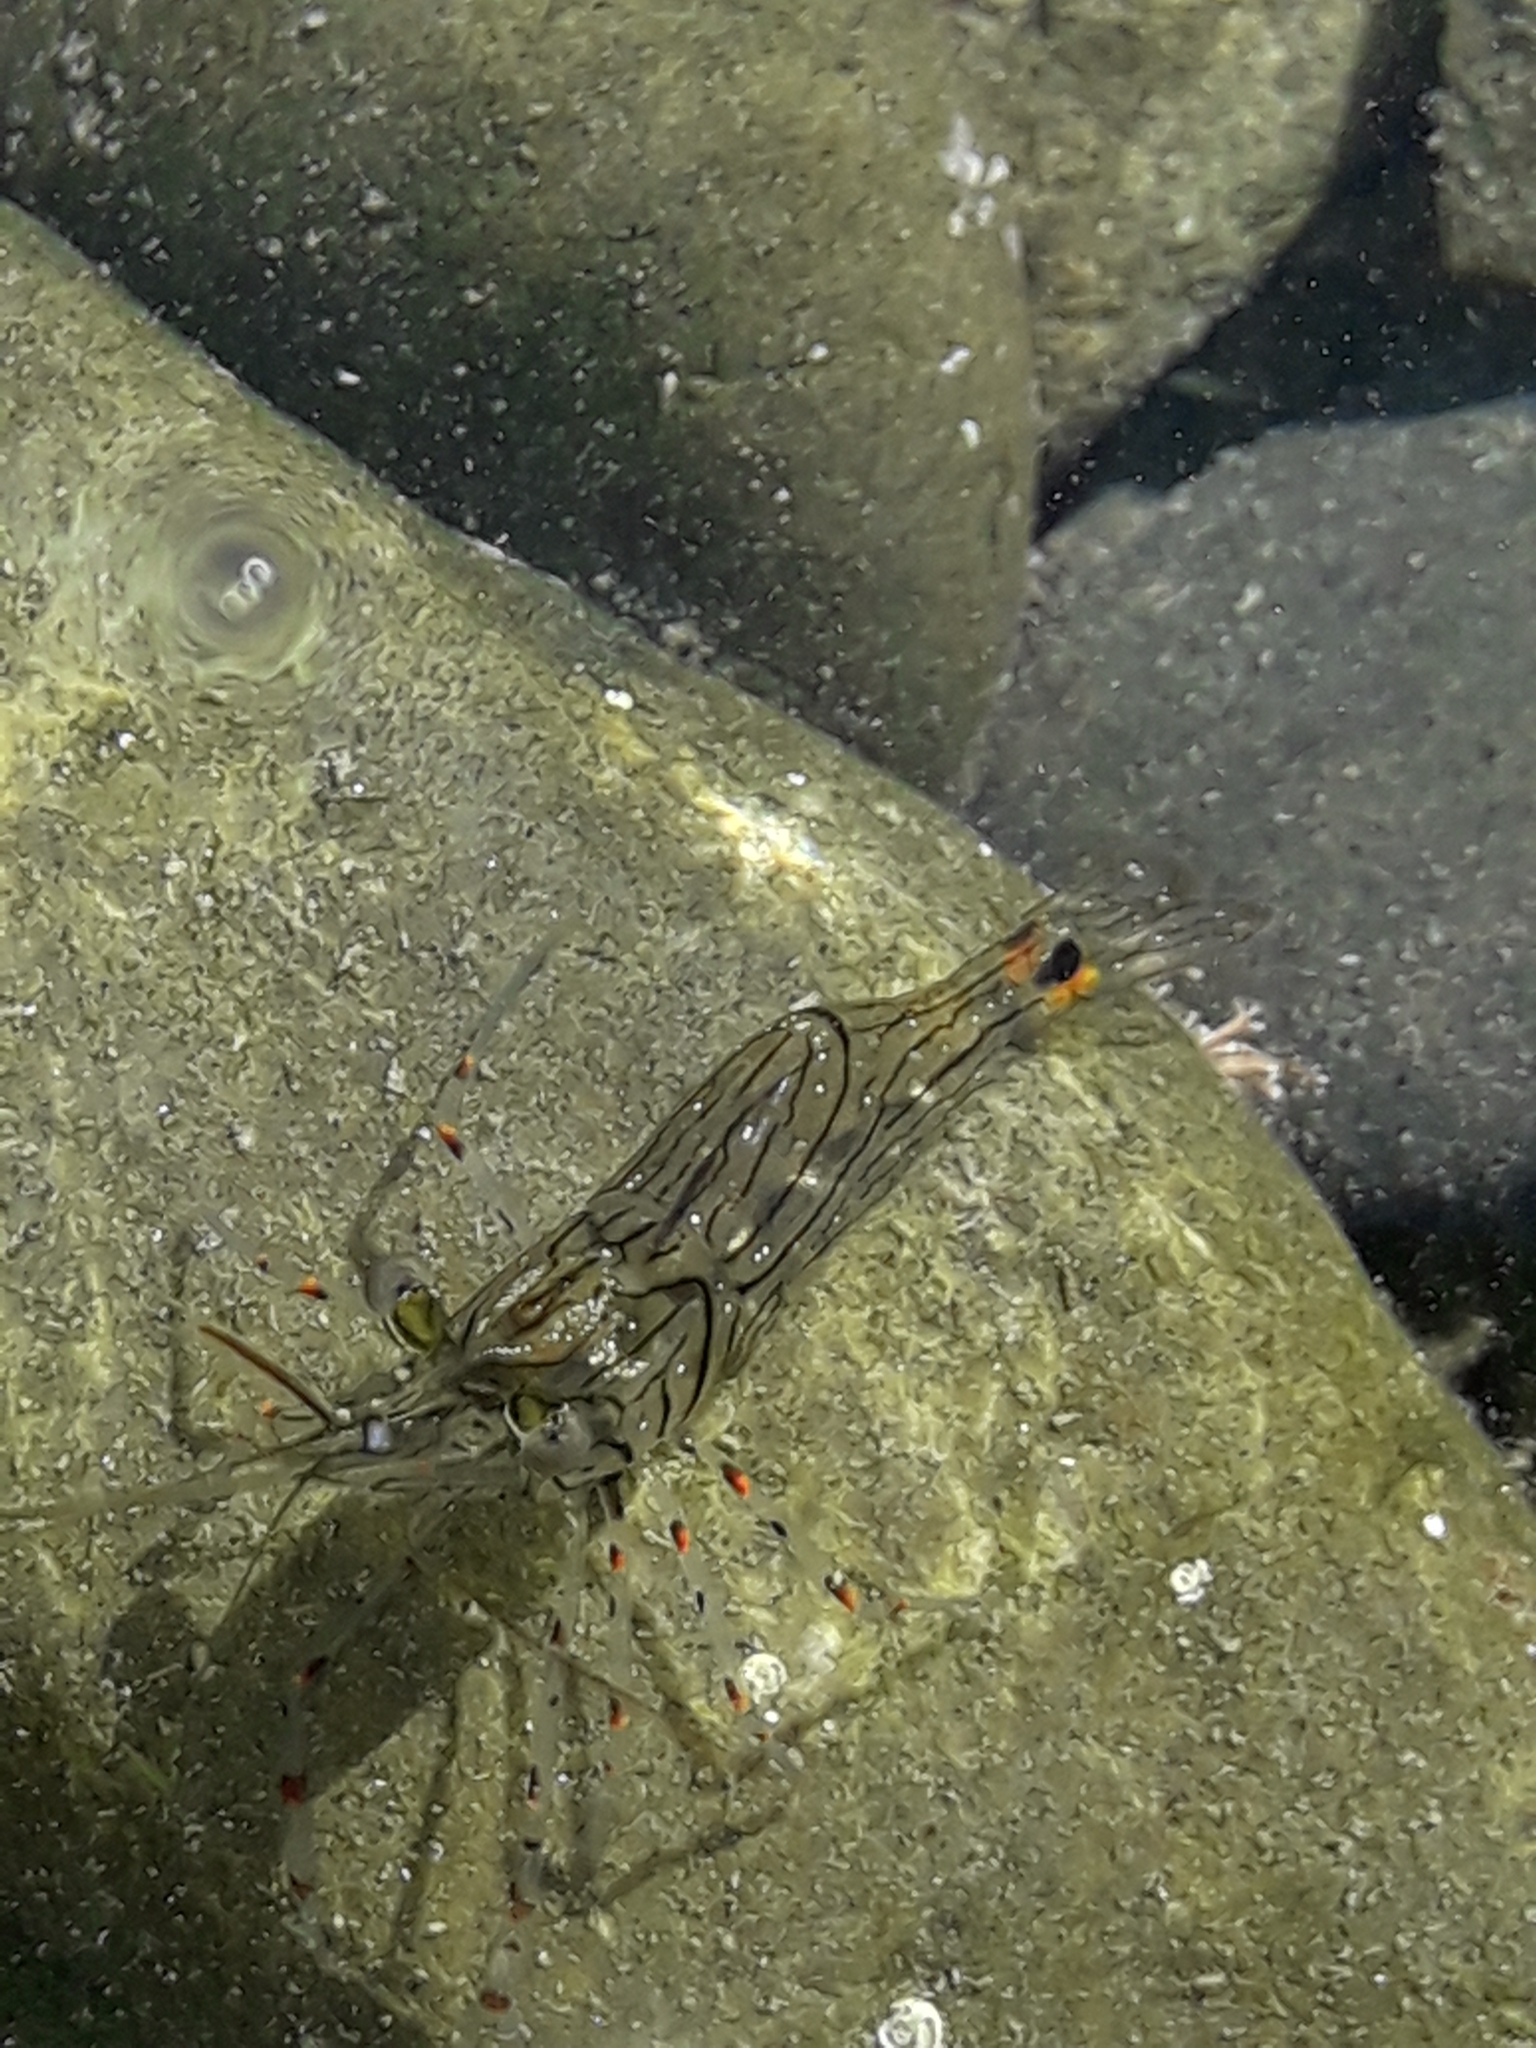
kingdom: Animalia
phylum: Arthropoda
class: Malacostraca
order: Decapoda
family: Palaemonidae
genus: Palaemon
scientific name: Palaemon affinis
